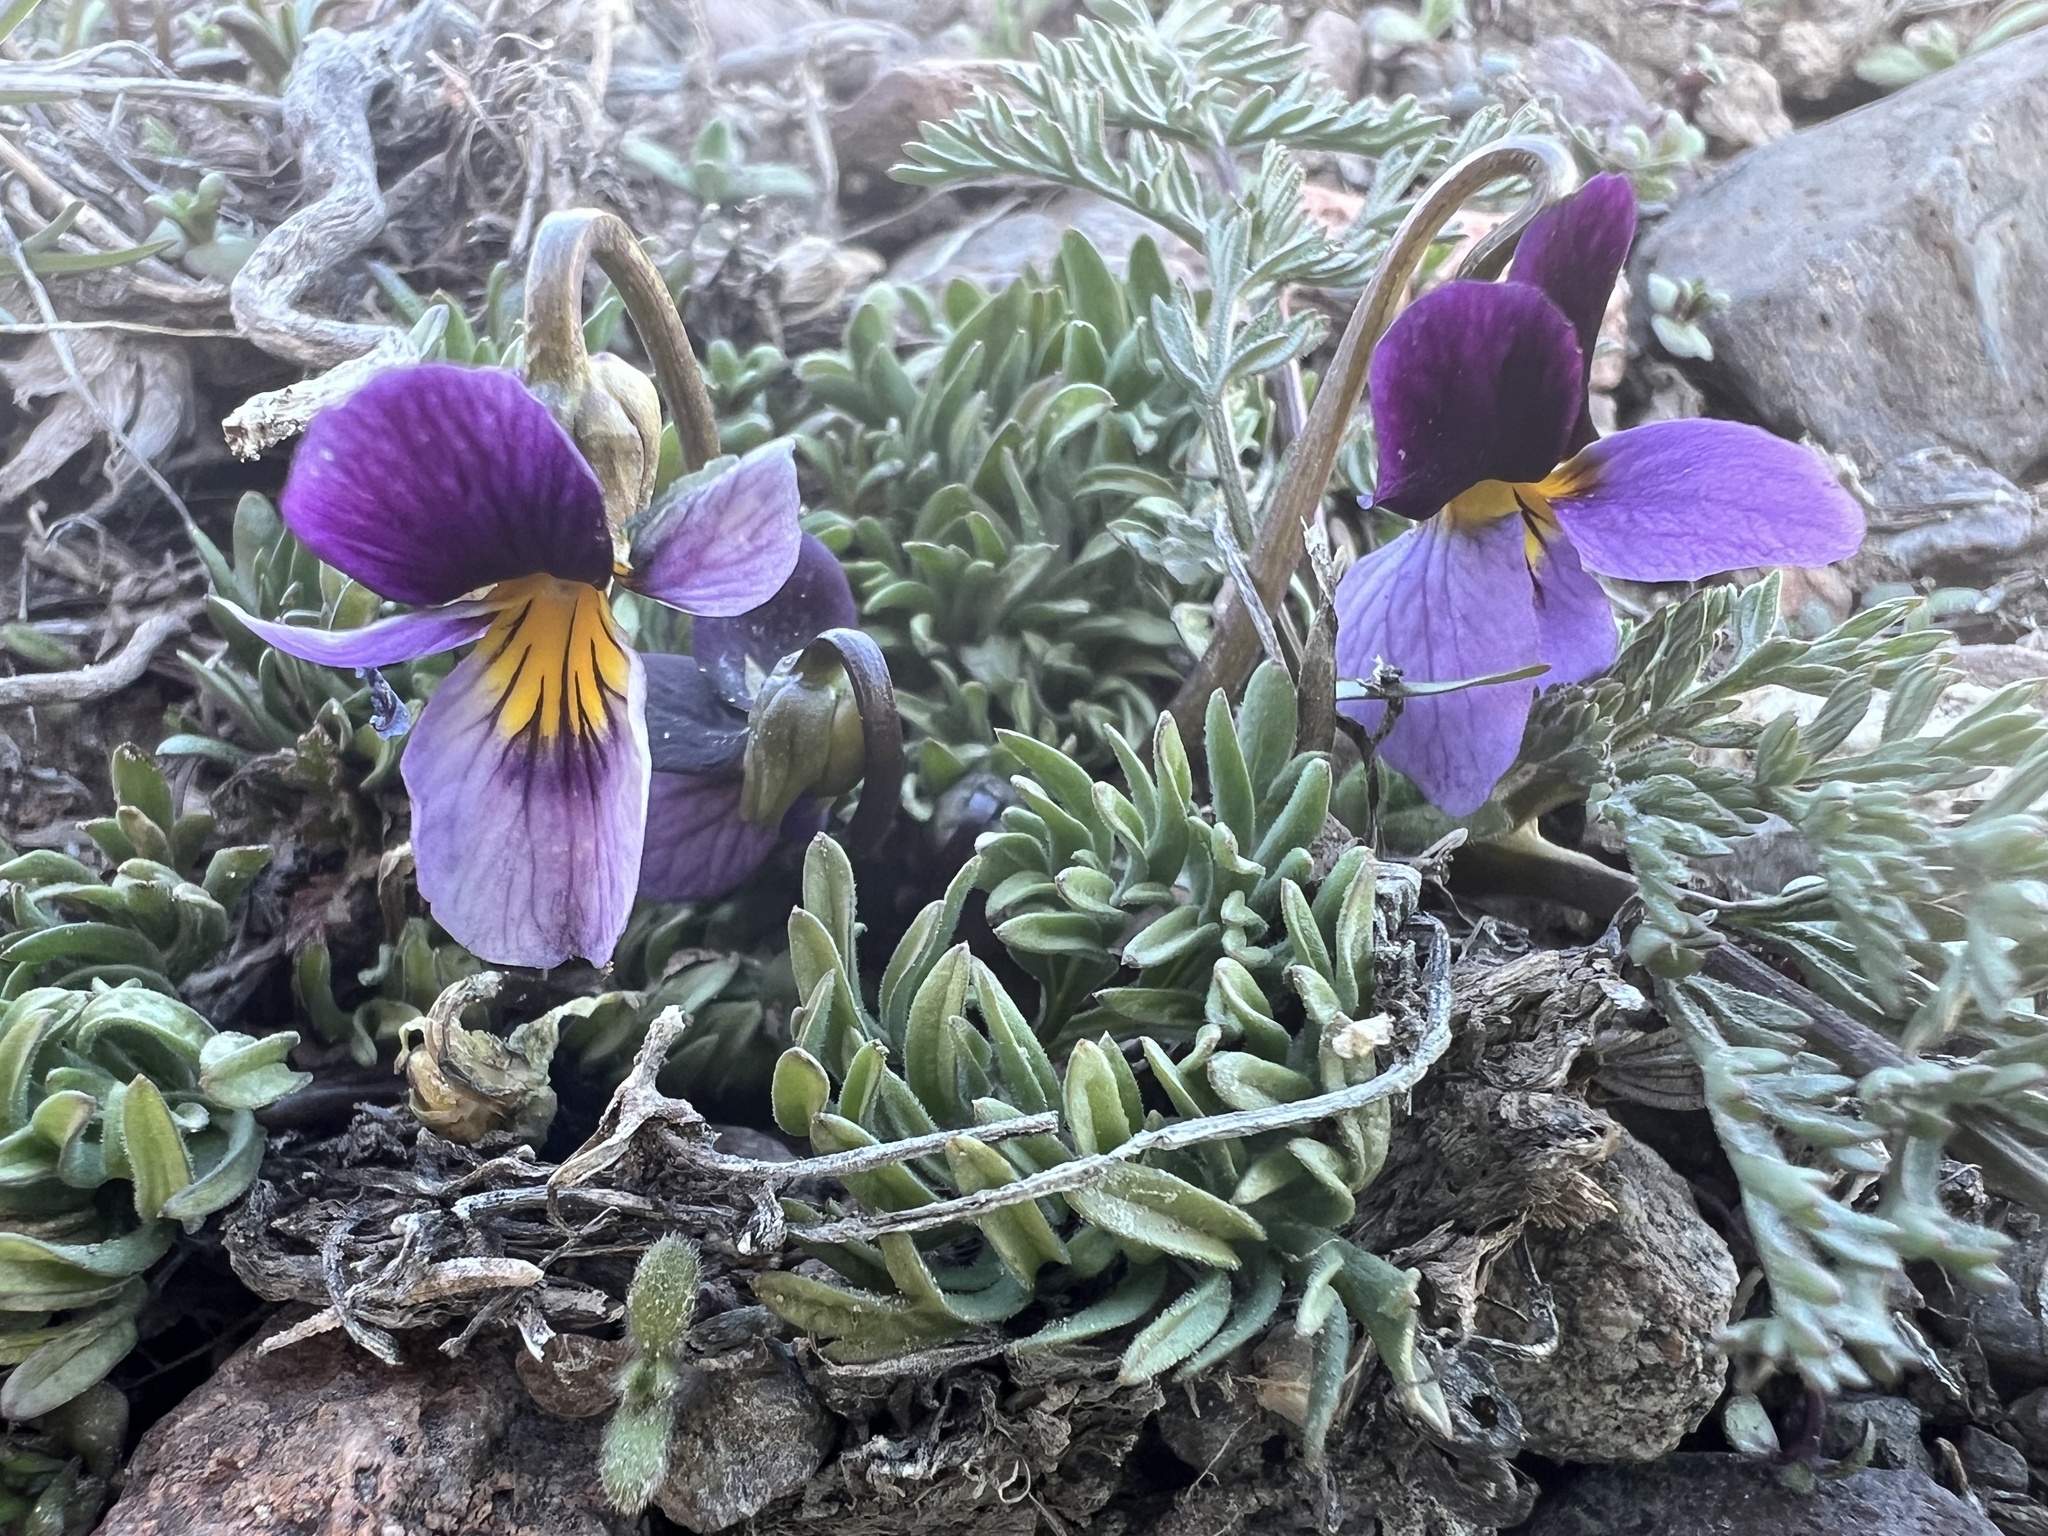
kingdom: Plantae
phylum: Tracheophyta
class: Magnoliopsida
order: Malpighiales
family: Violaceae
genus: Viola
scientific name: Viola beckwithii
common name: Beckwith's violet
